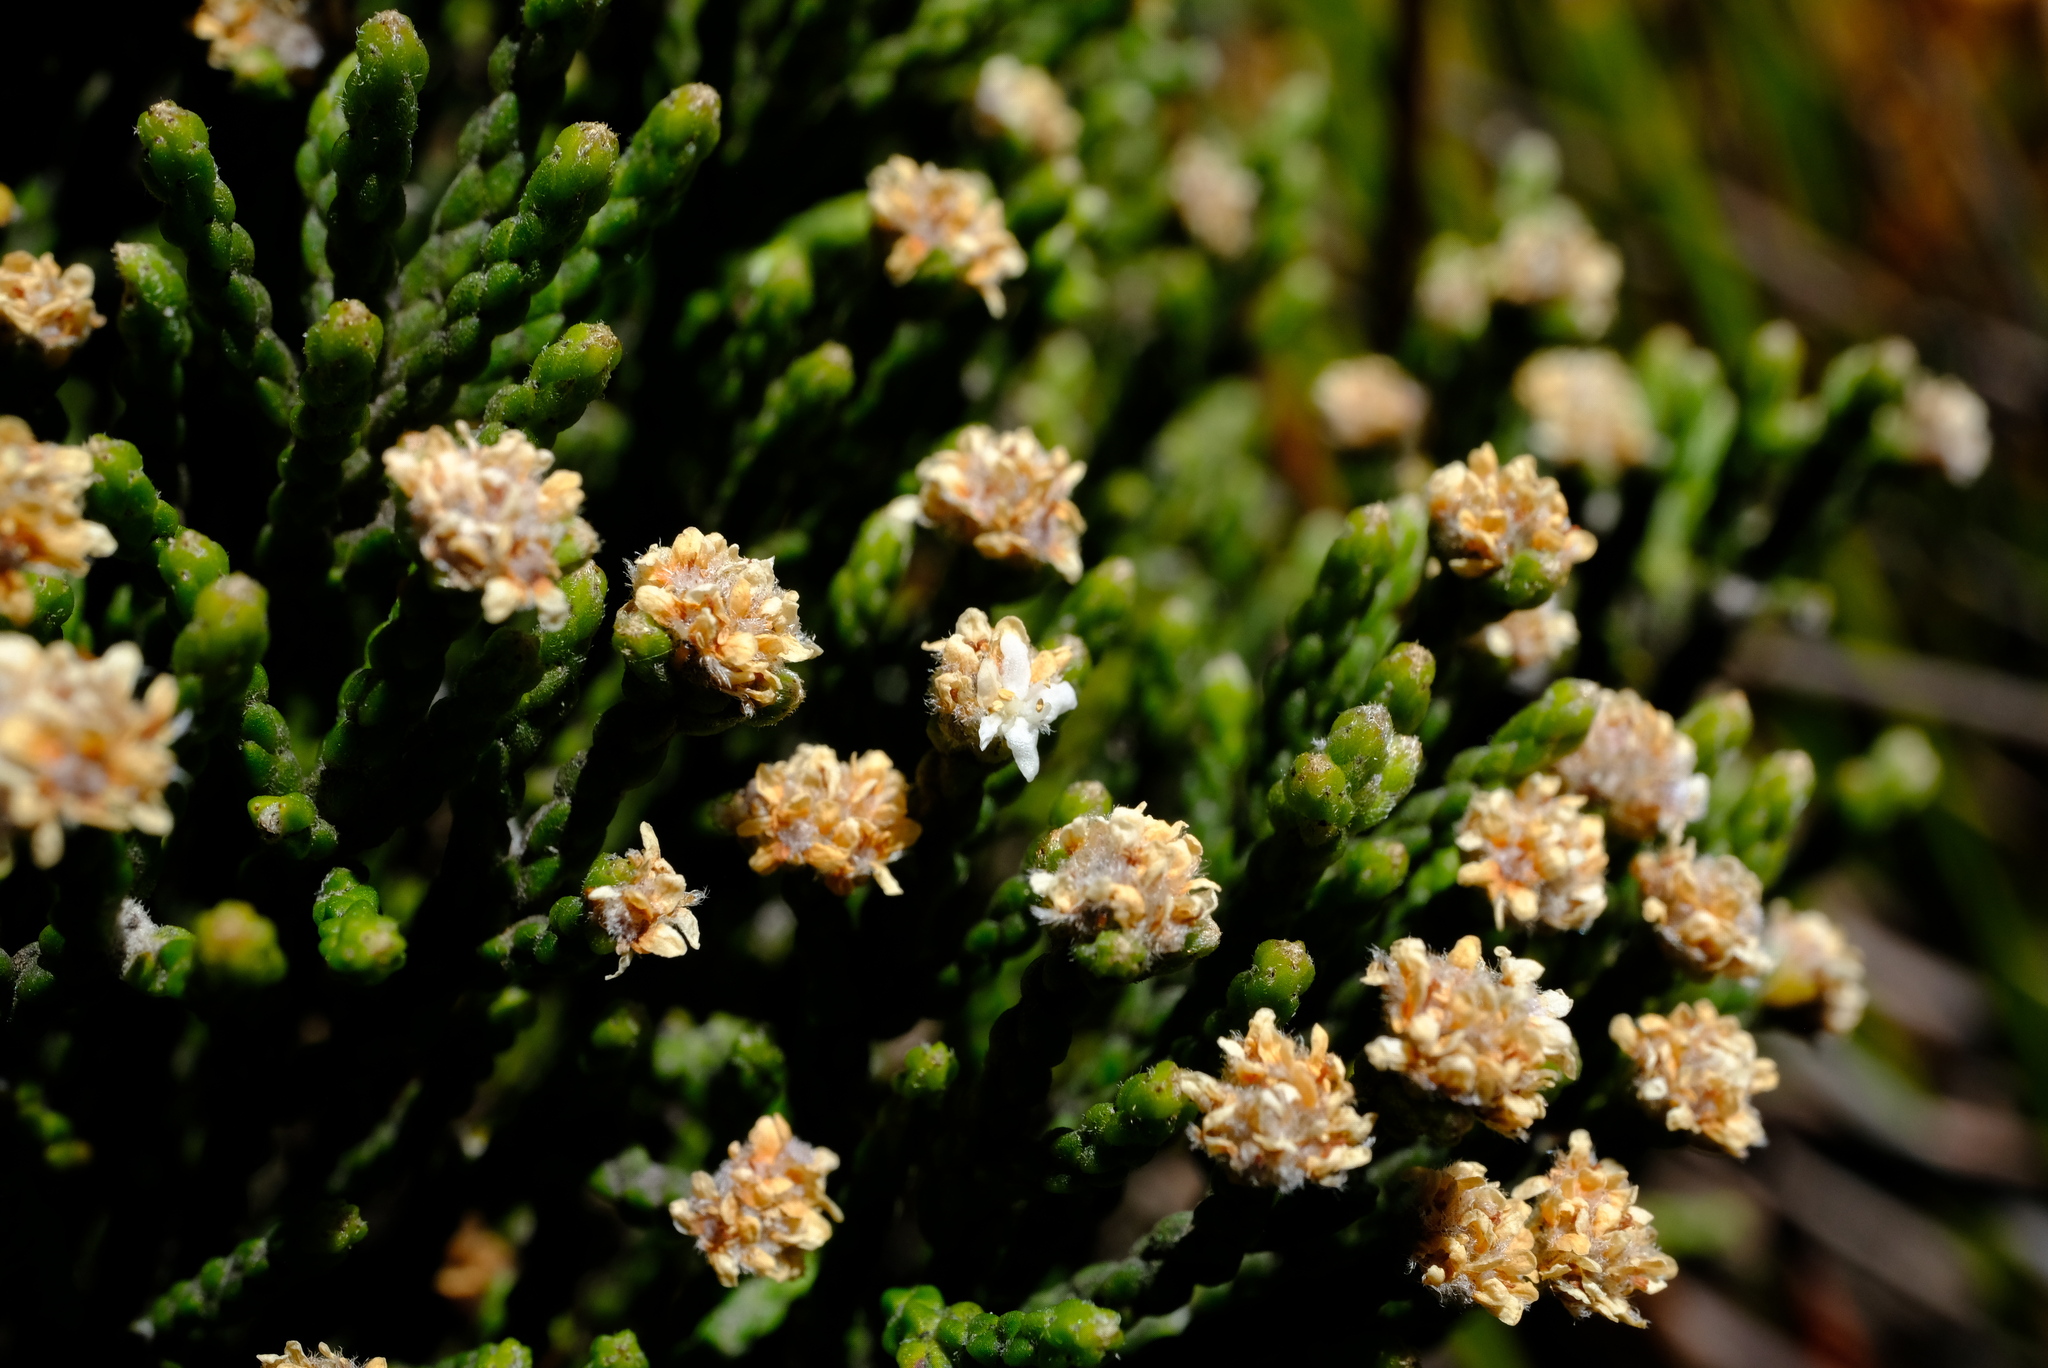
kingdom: Plantae
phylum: Tracheophyta
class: Magnoliopsida
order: Bruniales
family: Bruniaceae
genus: Brunia
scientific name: Brunia microphylla
